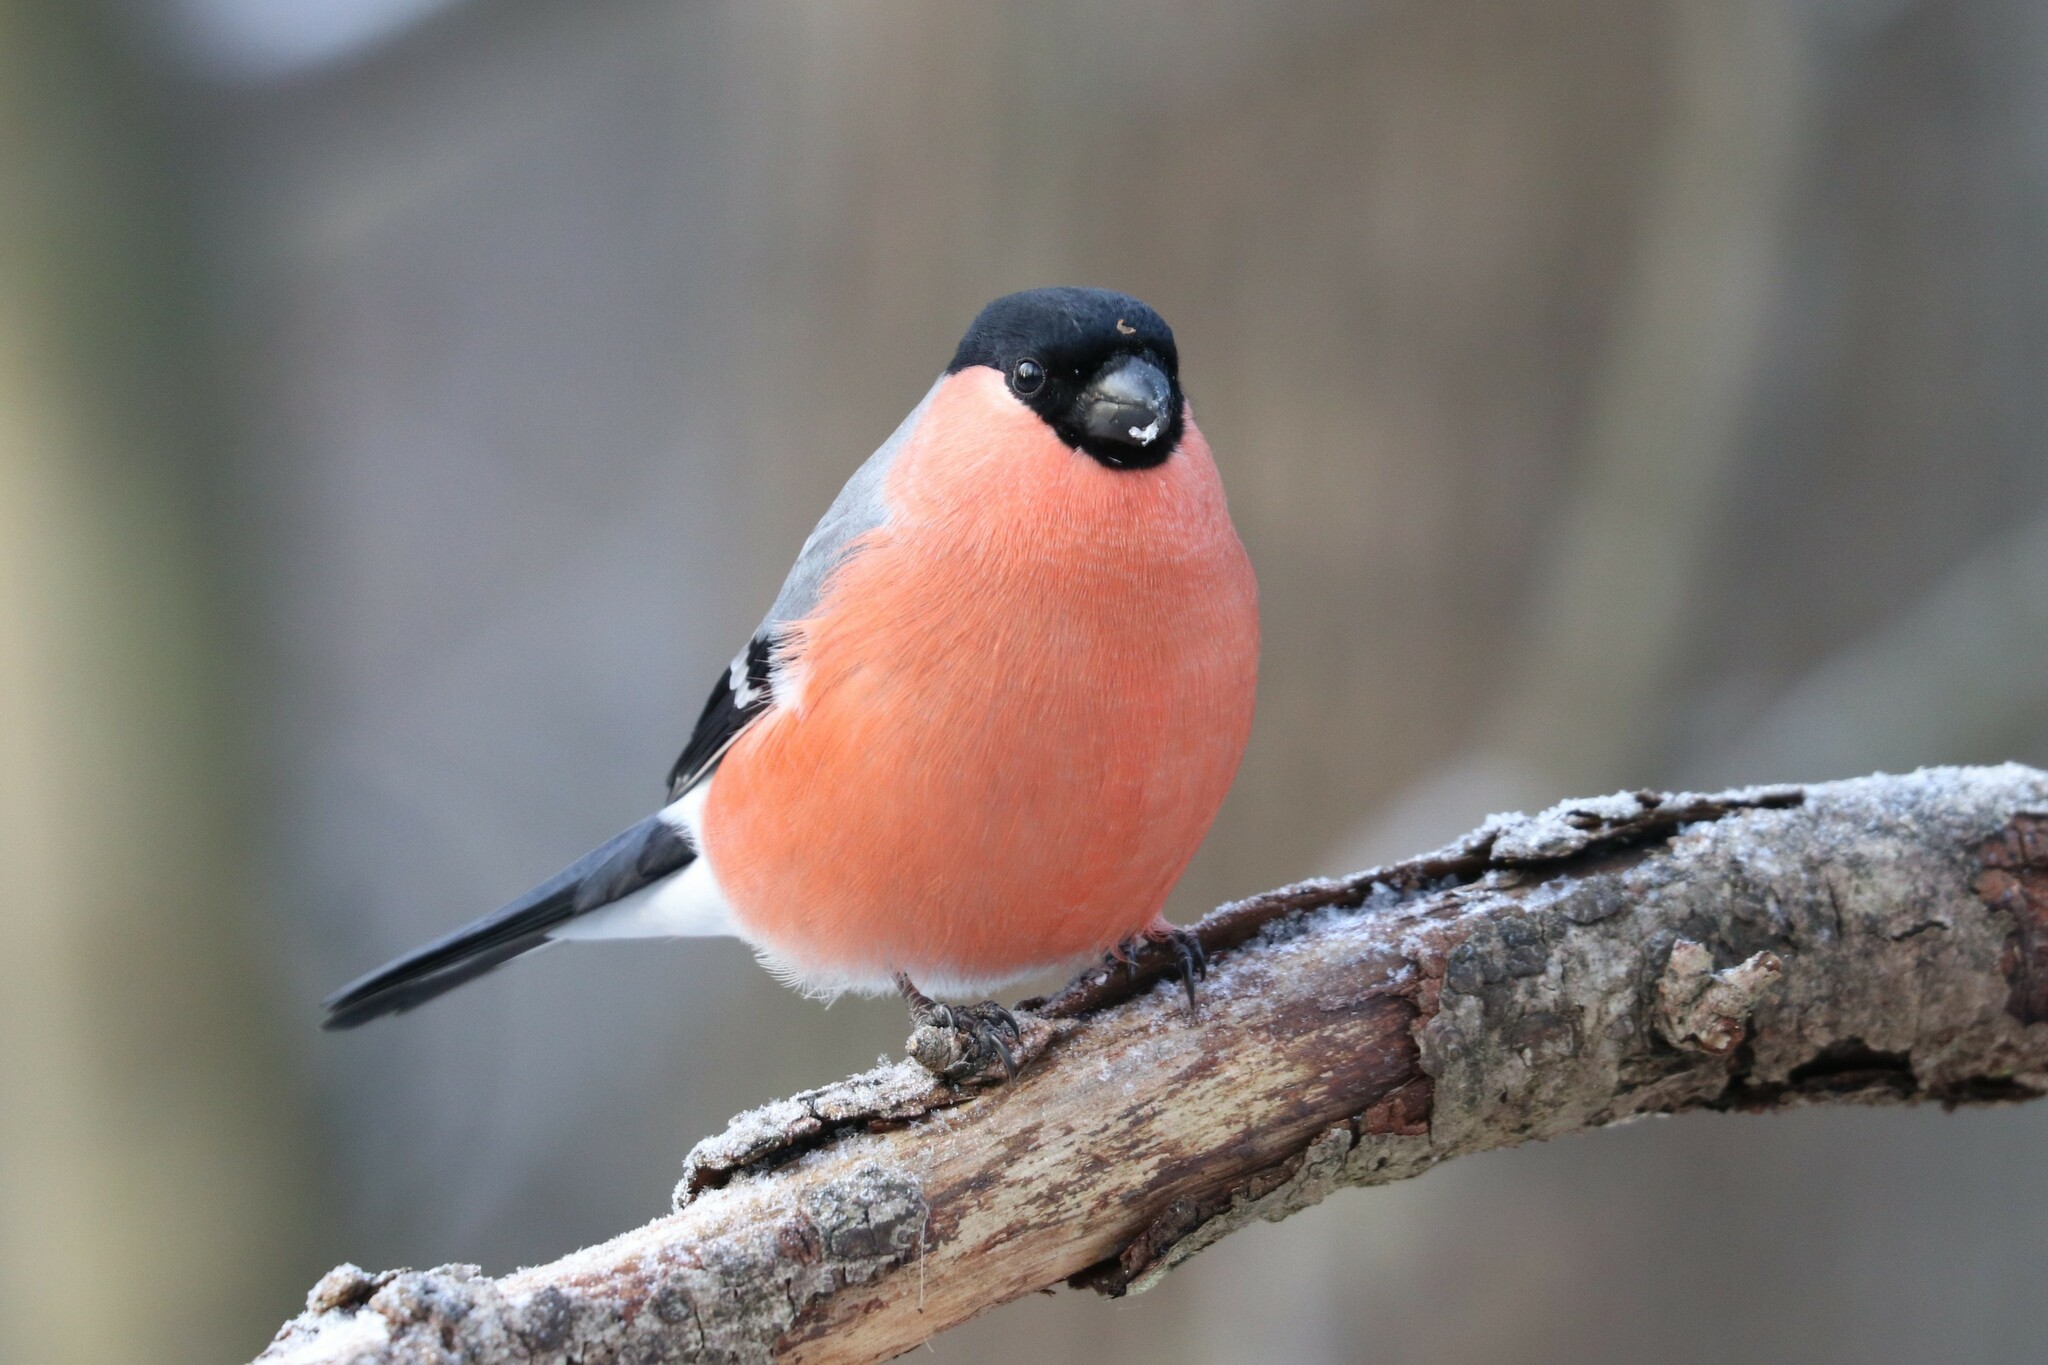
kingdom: Animalia
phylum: Chordata
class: Aves
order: Passeriformes
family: Fringillidae
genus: Pyrrhula
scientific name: Pyrrhula pyrrhula
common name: Eurasian bullfinch
